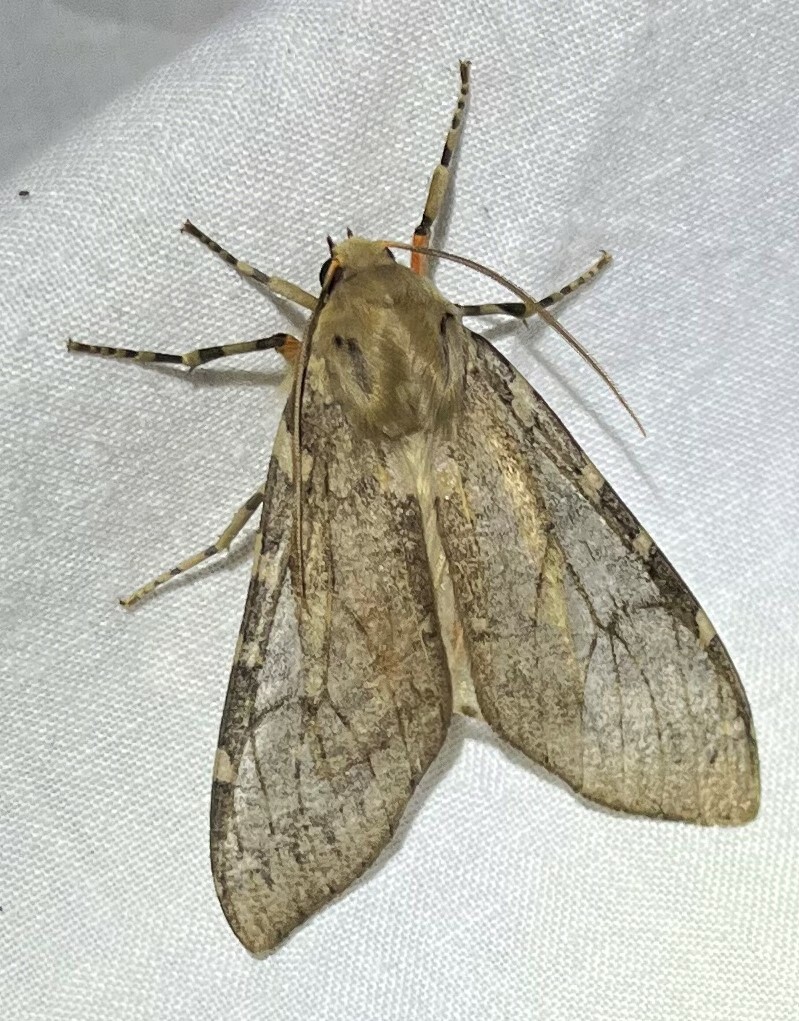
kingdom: Animalia
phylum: Arthropoda
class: Insecta
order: Lepidoptera
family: Erebidae
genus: Hemihyalea
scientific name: Hemihyalea labecula
